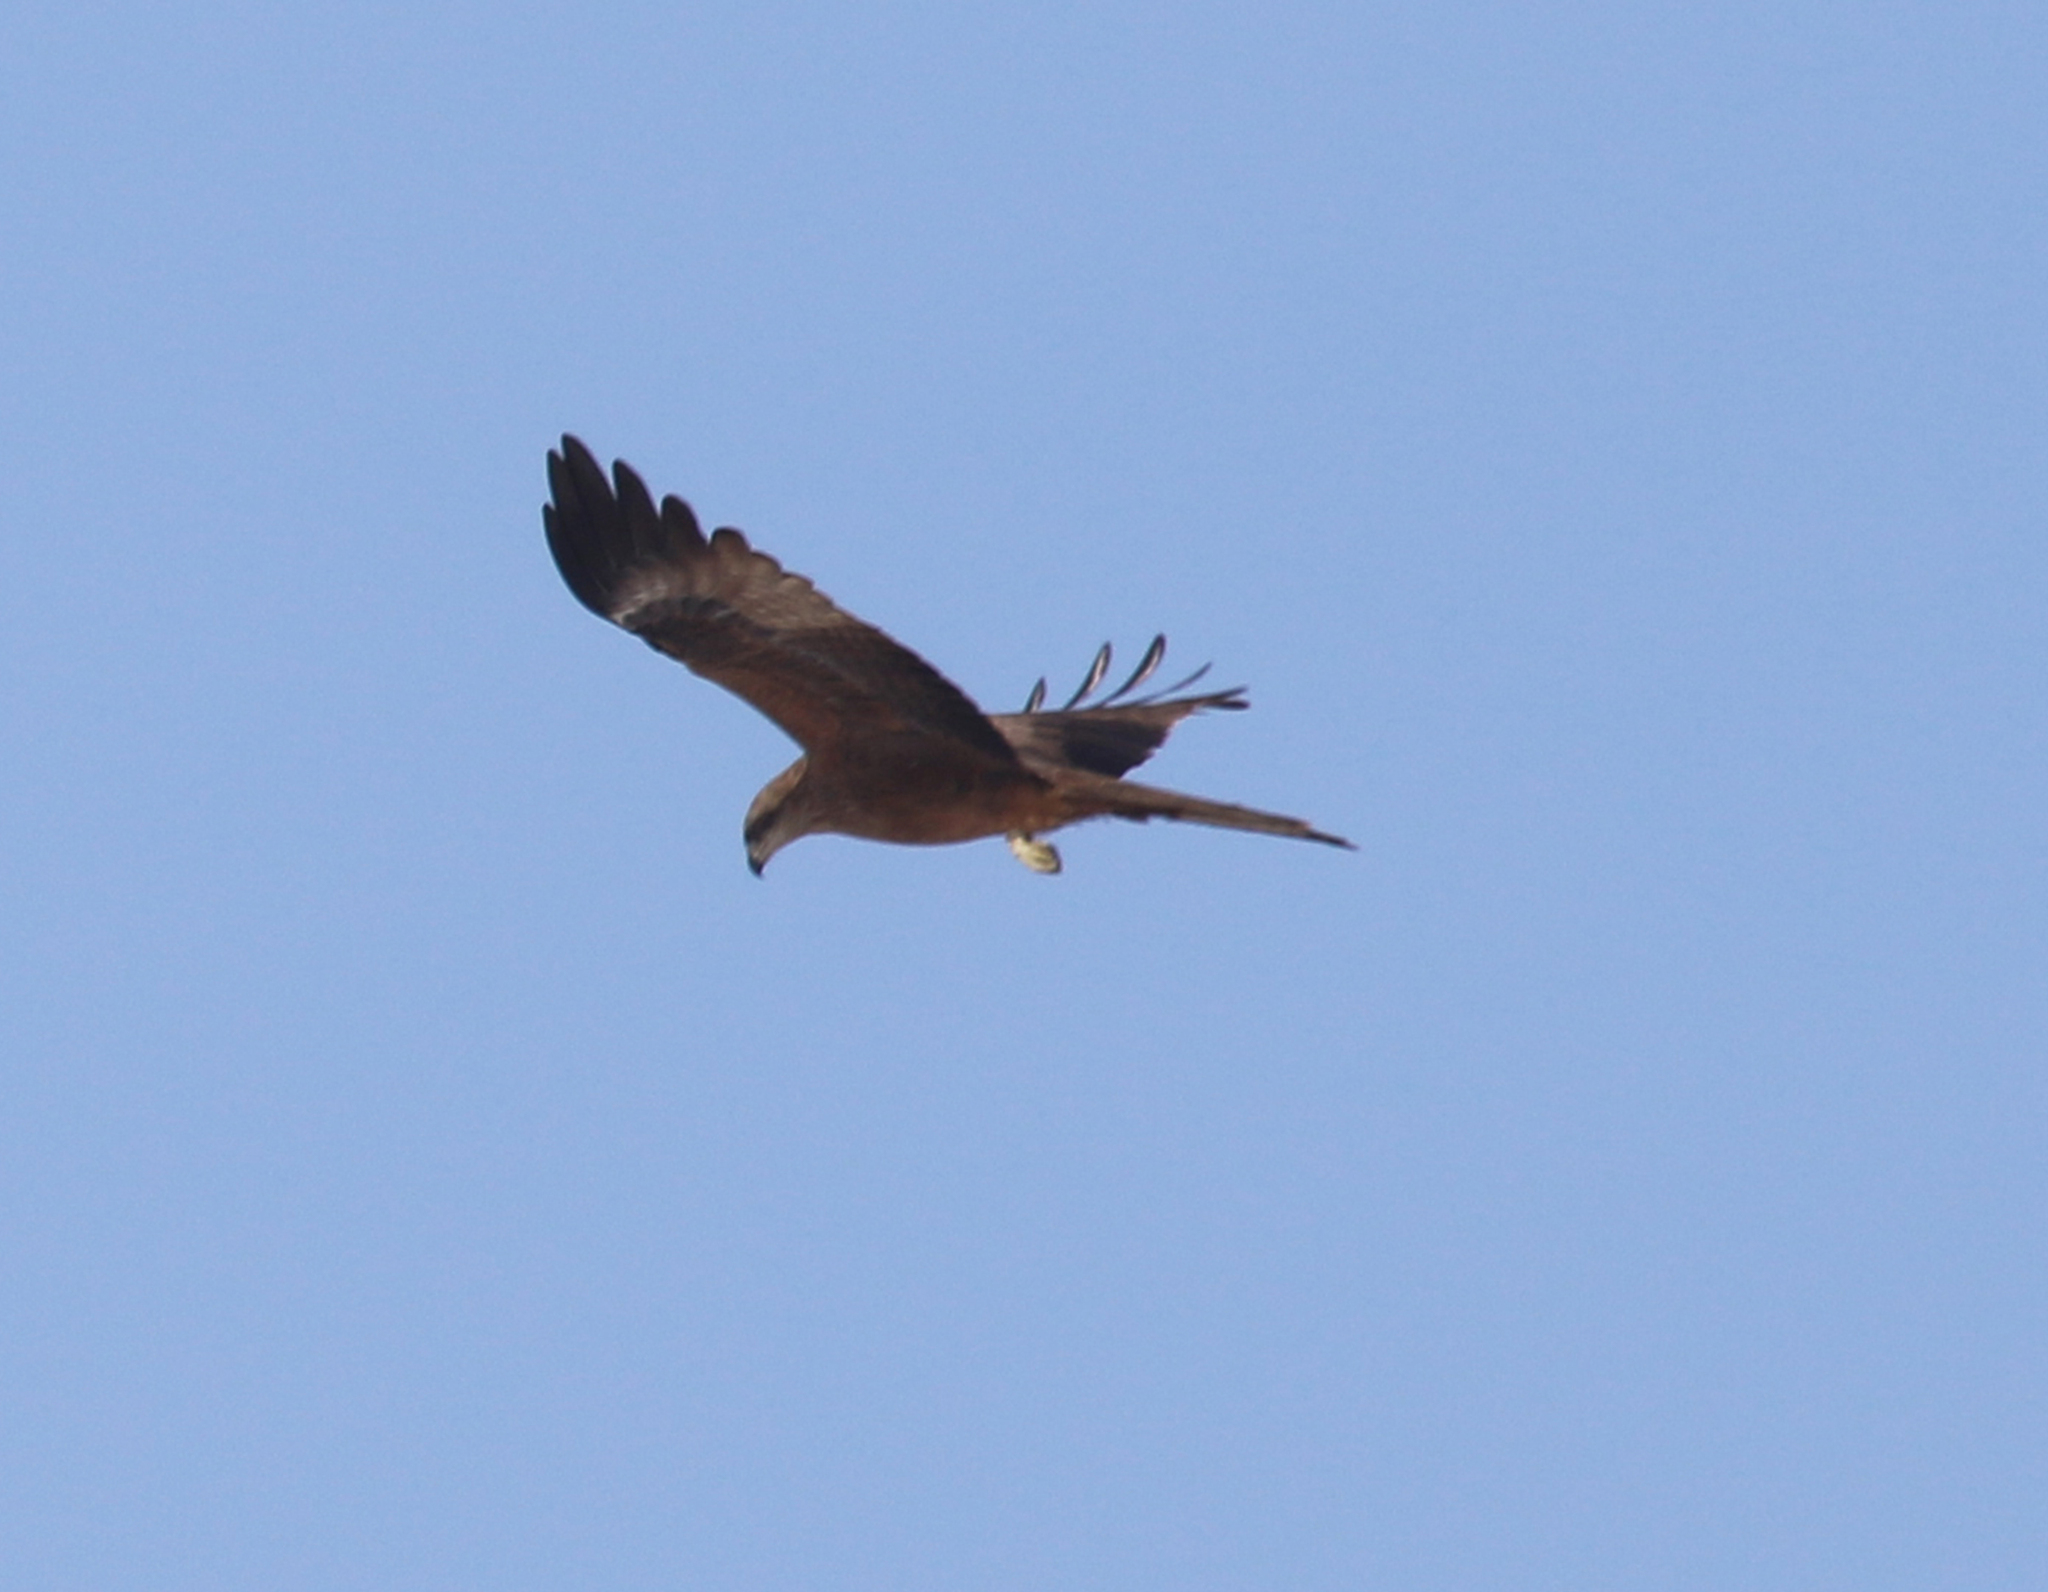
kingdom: Animalia
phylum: Chordata
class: Aves
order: Accipitriformes
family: Accipitridae
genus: Milvus
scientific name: Milvus migrans
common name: Black kite
